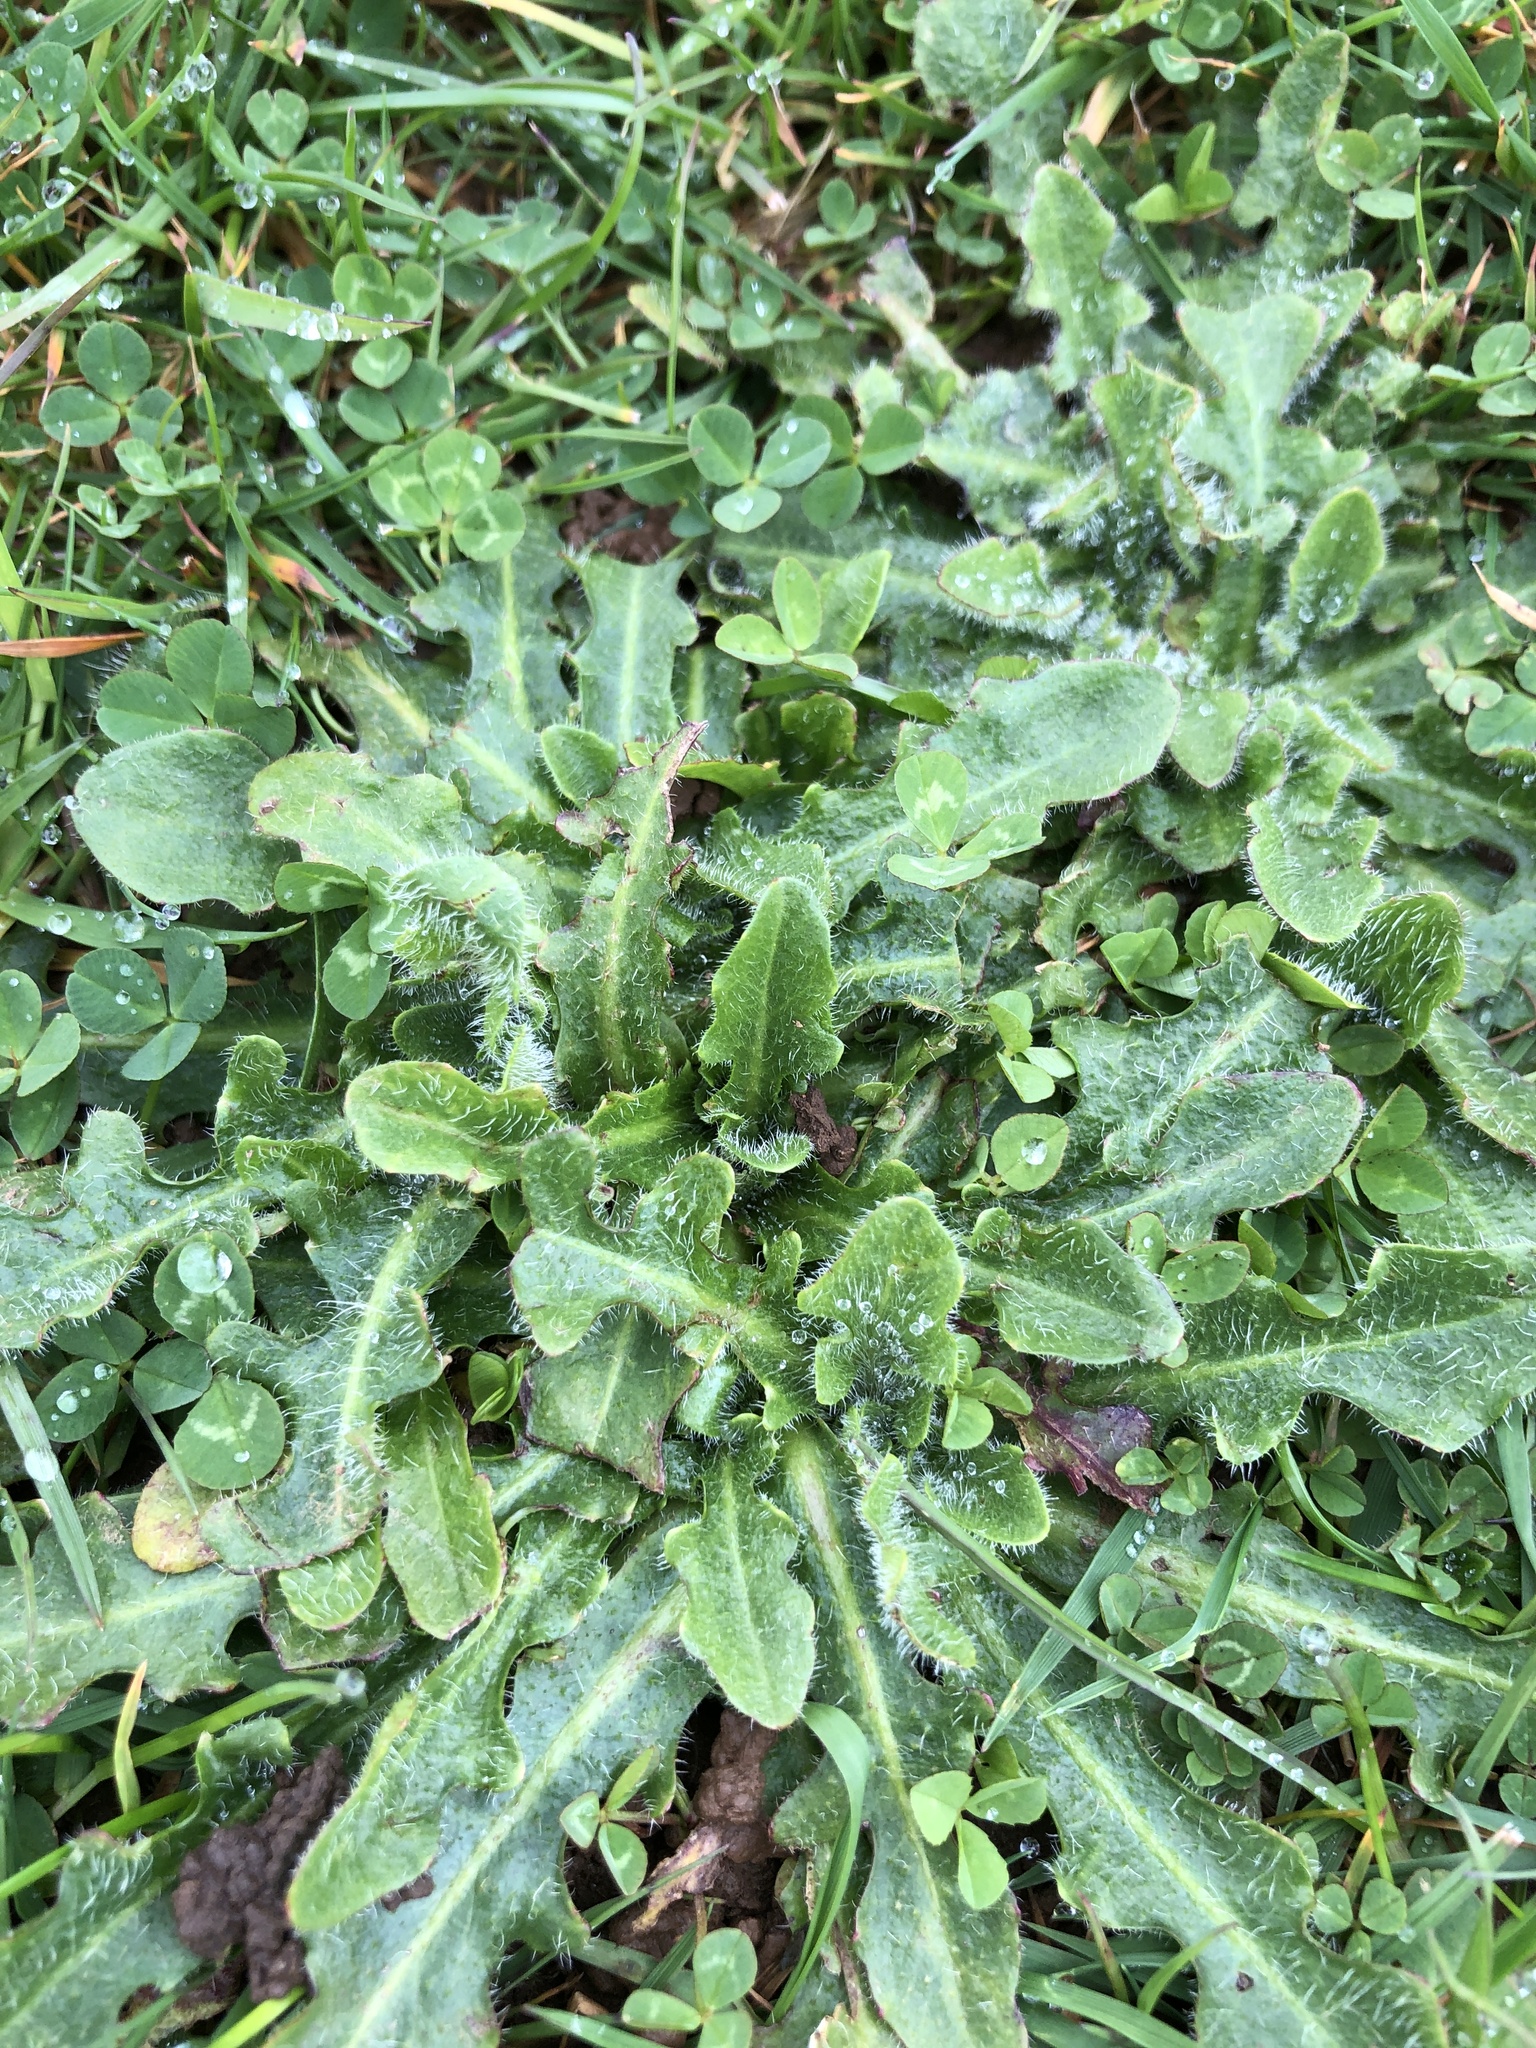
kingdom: Plantae
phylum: Tracheophyta
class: Magnoliopsida
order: Asterales
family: Asteraceae
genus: Hypochaeris
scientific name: Hypochaeris radicata
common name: Flatweed
